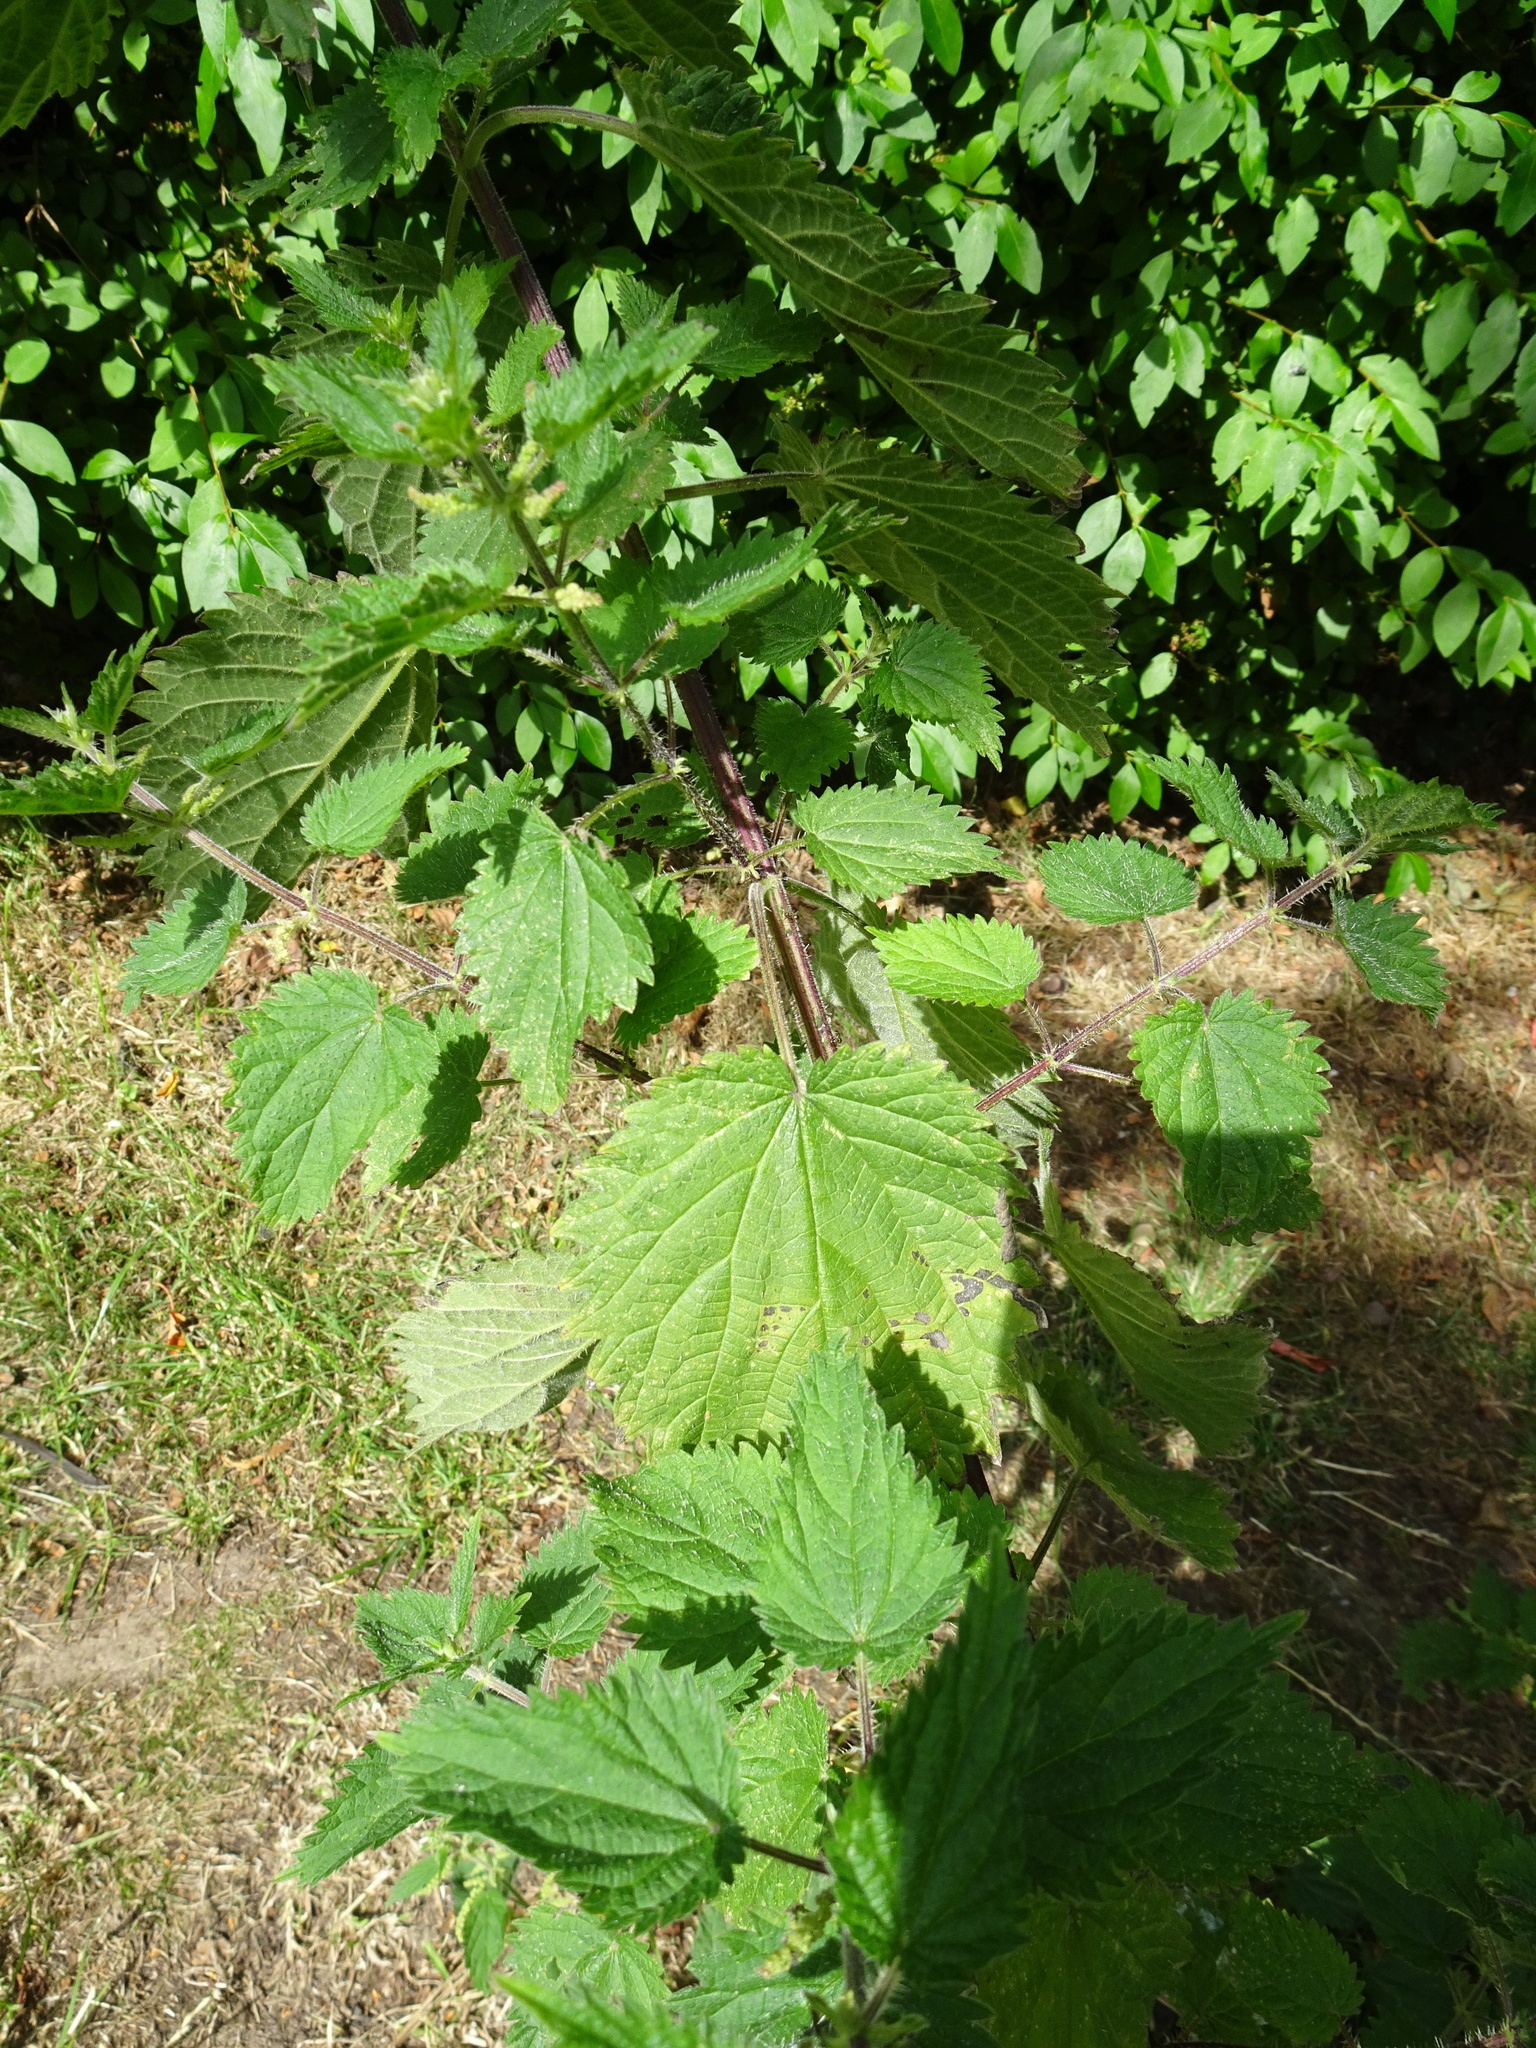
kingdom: Plantae
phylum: Tracheophyta
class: Magnoliopsida
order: Rosales
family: Urticaceae
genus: Urtica
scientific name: Urtica dioica
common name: Common nettle
